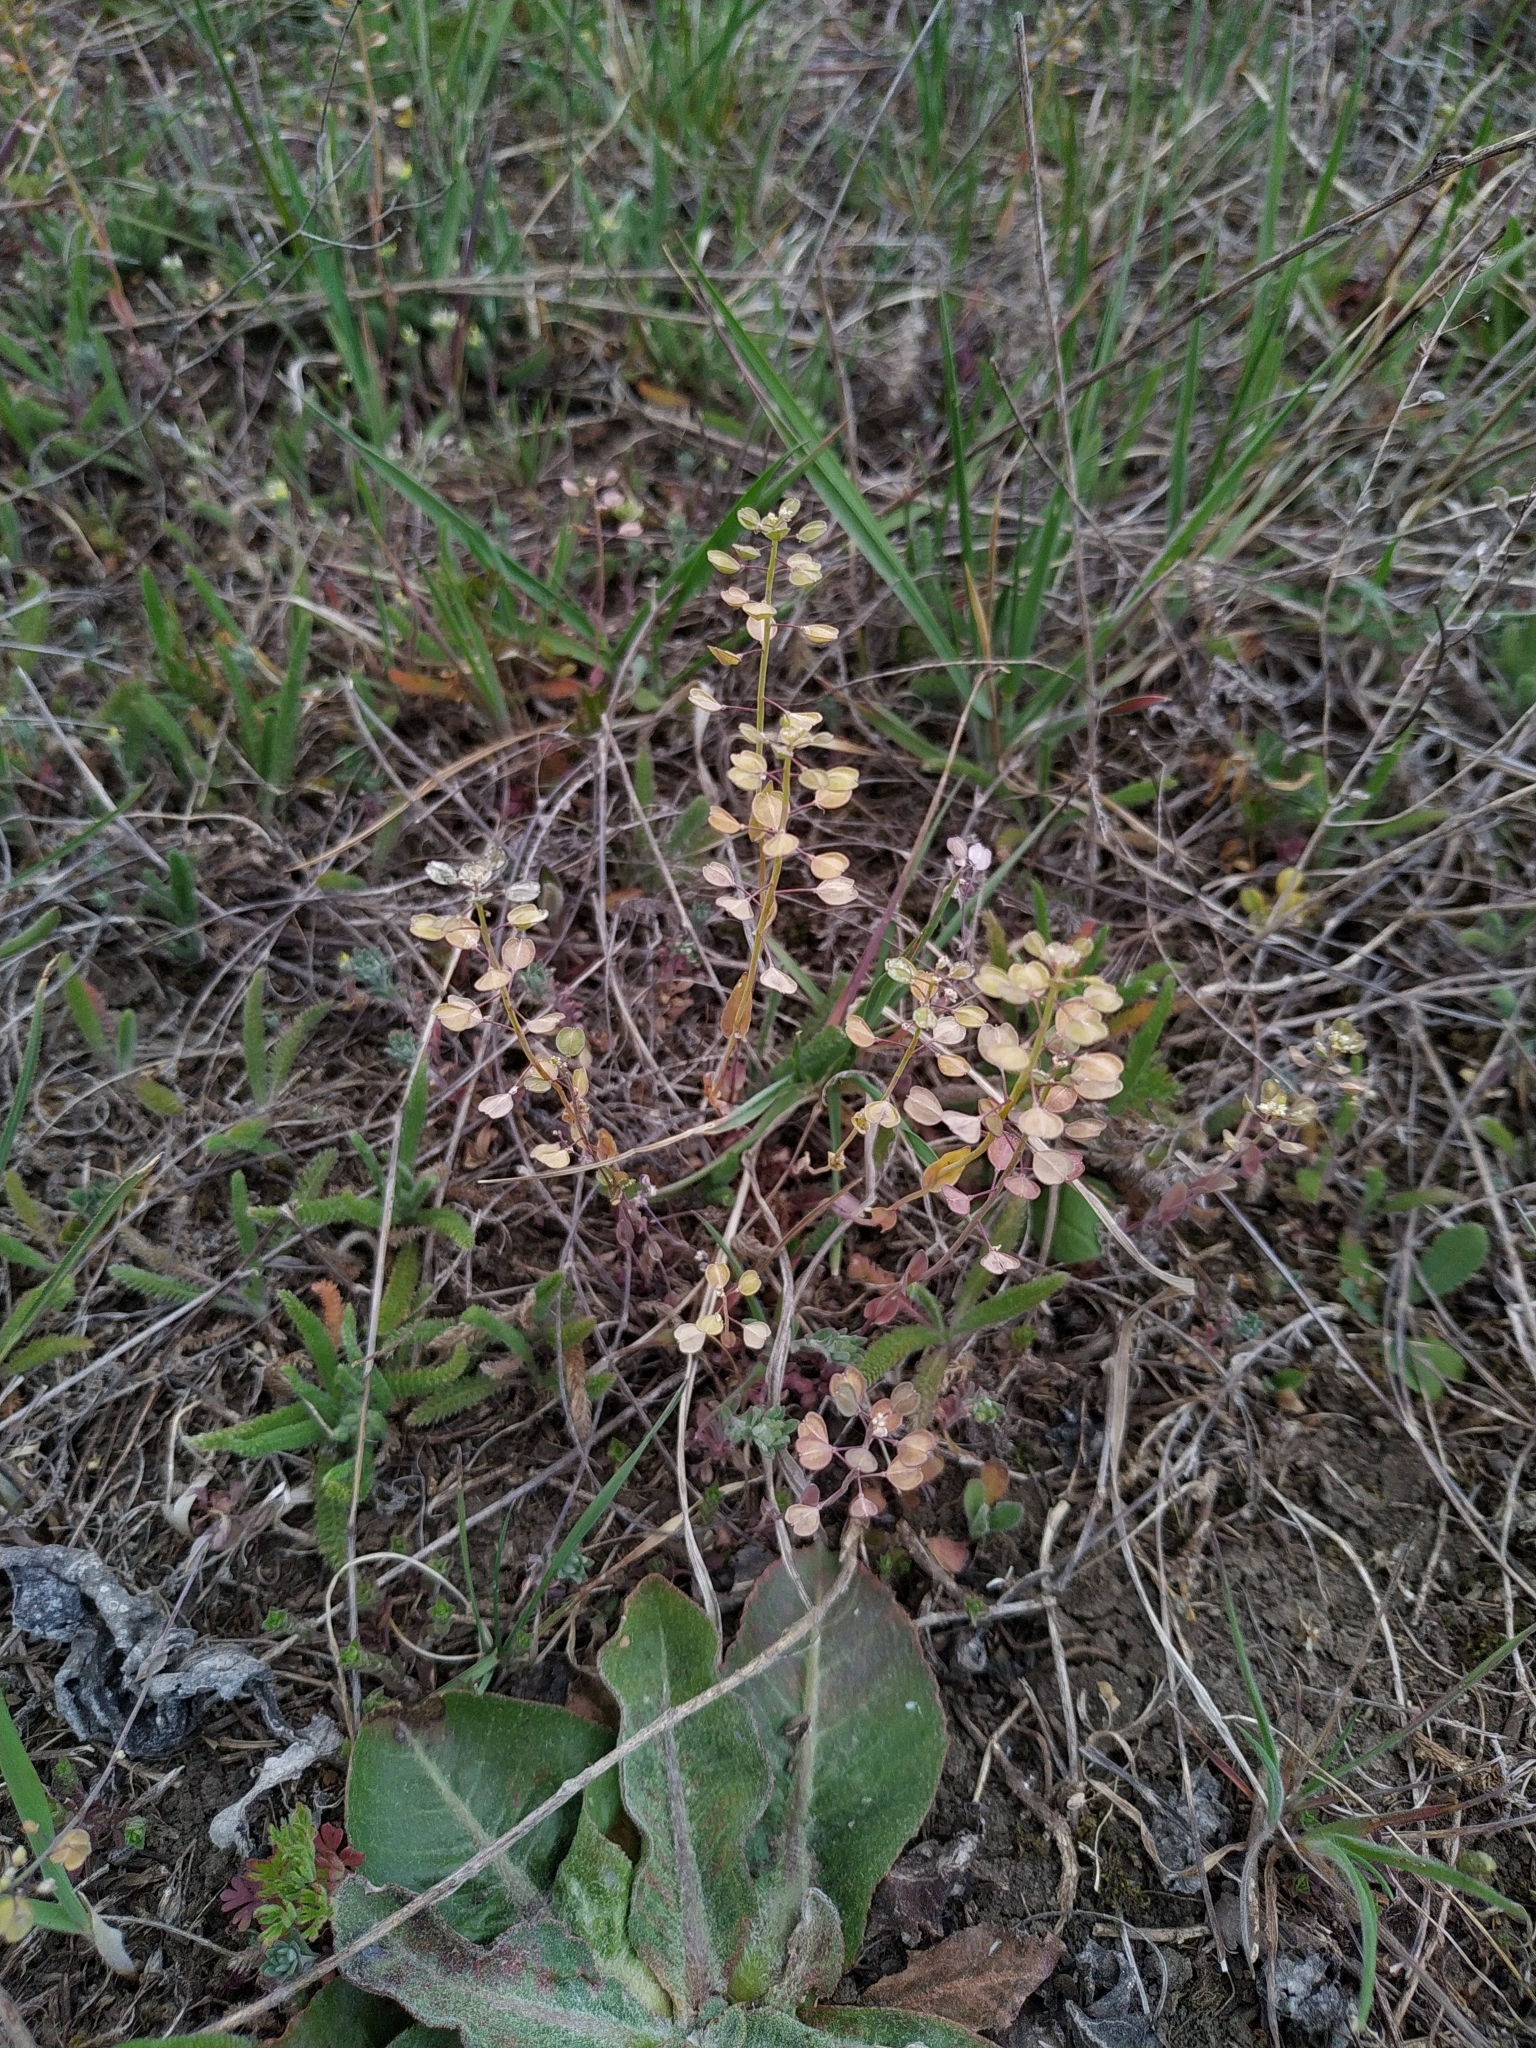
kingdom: Plantae
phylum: Tracheophyta
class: Magnoliopsida
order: Brassicales
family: Brassicaceae
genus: Noccaea
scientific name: Noccaea perfoliata
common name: Perfoliate pennycress
